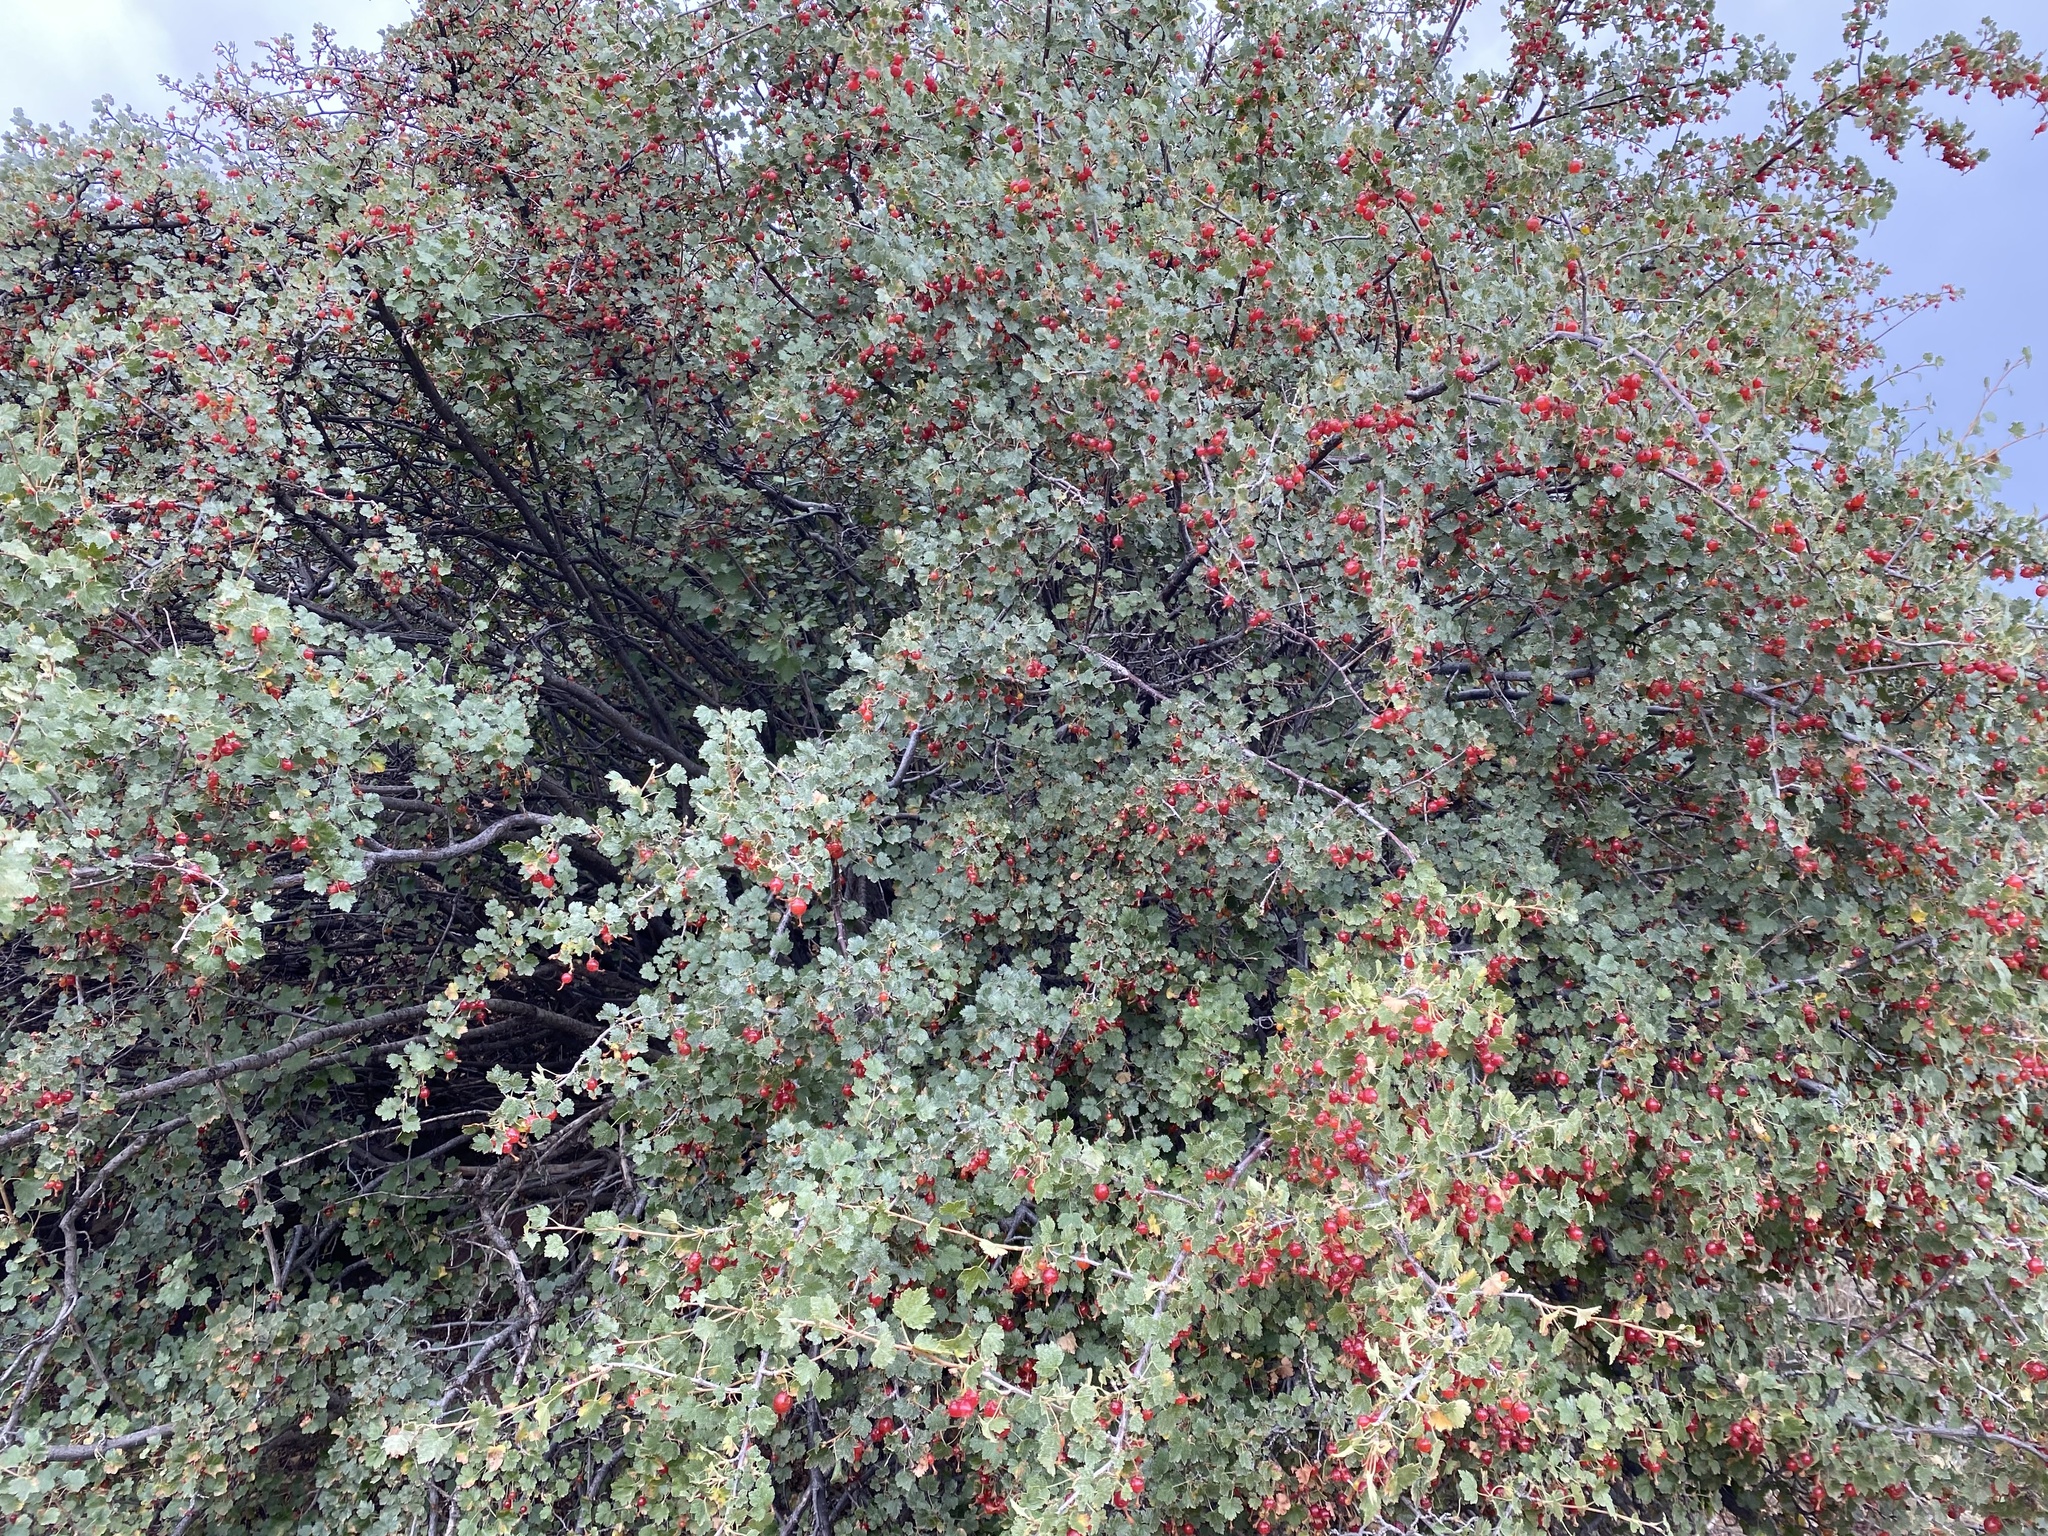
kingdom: Plantae
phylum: Tracheophyta
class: Magnoliopsida
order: Saxifragales
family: Grossulariaceae
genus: Ribes
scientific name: Ribes cereum
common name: Wax currant
